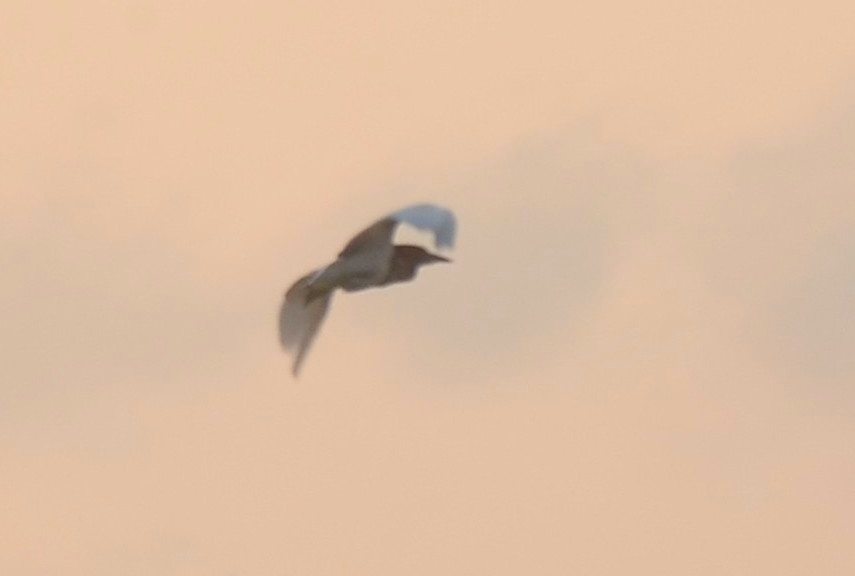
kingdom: Animalia
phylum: Chordata
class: Aves
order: Pelecaniformes
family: Ardeidae
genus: Ardeola
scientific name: Ardeola grayii
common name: Indian pond heron
